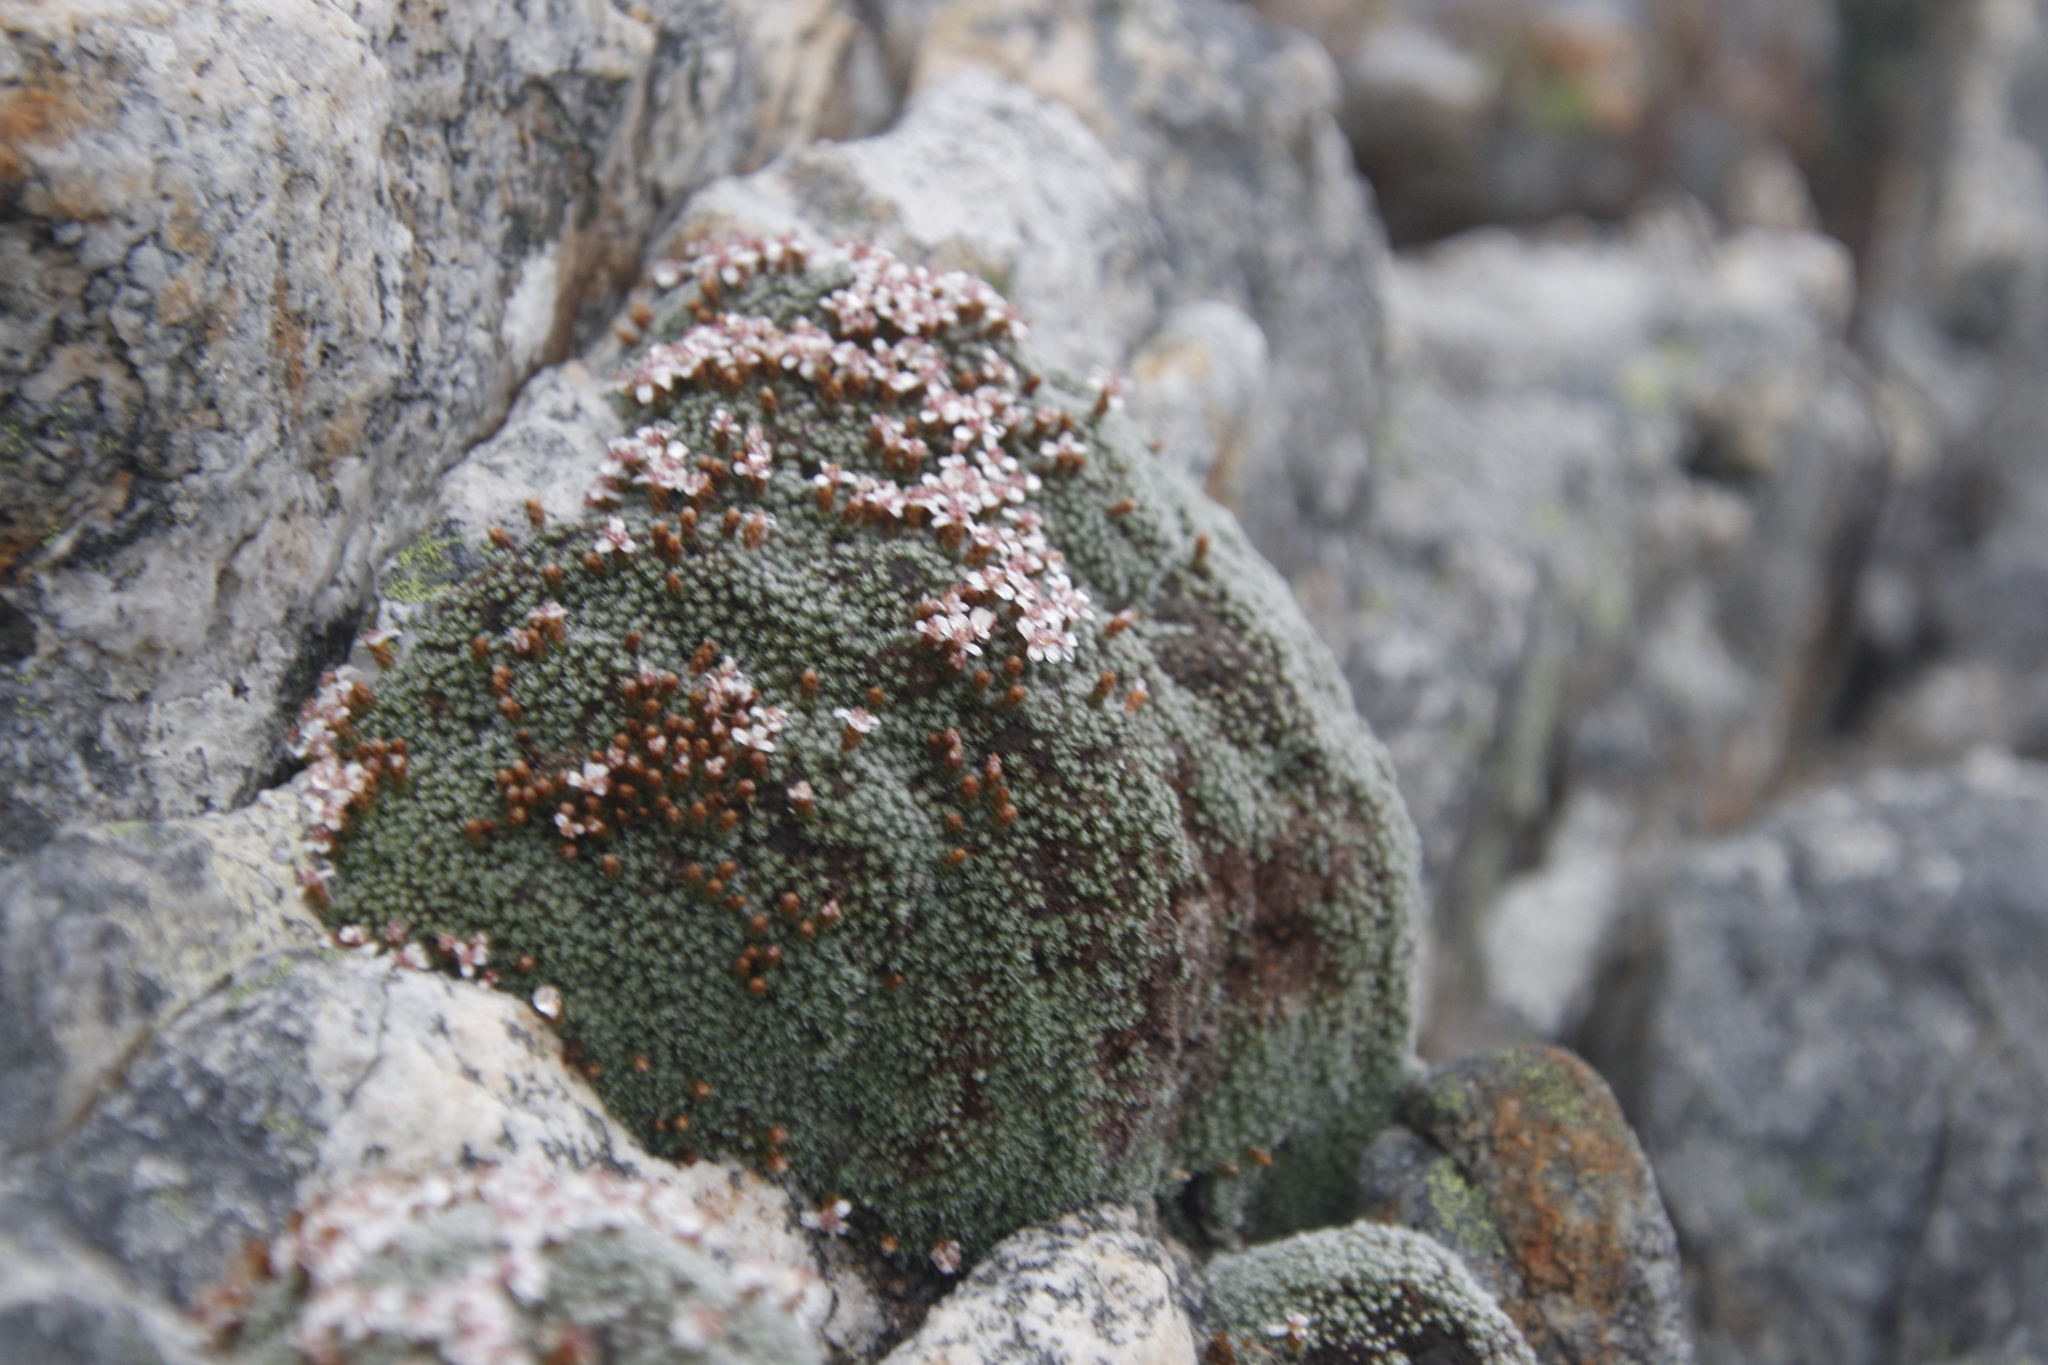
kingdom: Plantae
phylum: Tracheophyta
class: Magnoliopsida
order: Asterales
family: Asteraceae
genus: Muscosomorphe
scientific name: Muscosomorphe aretioides
